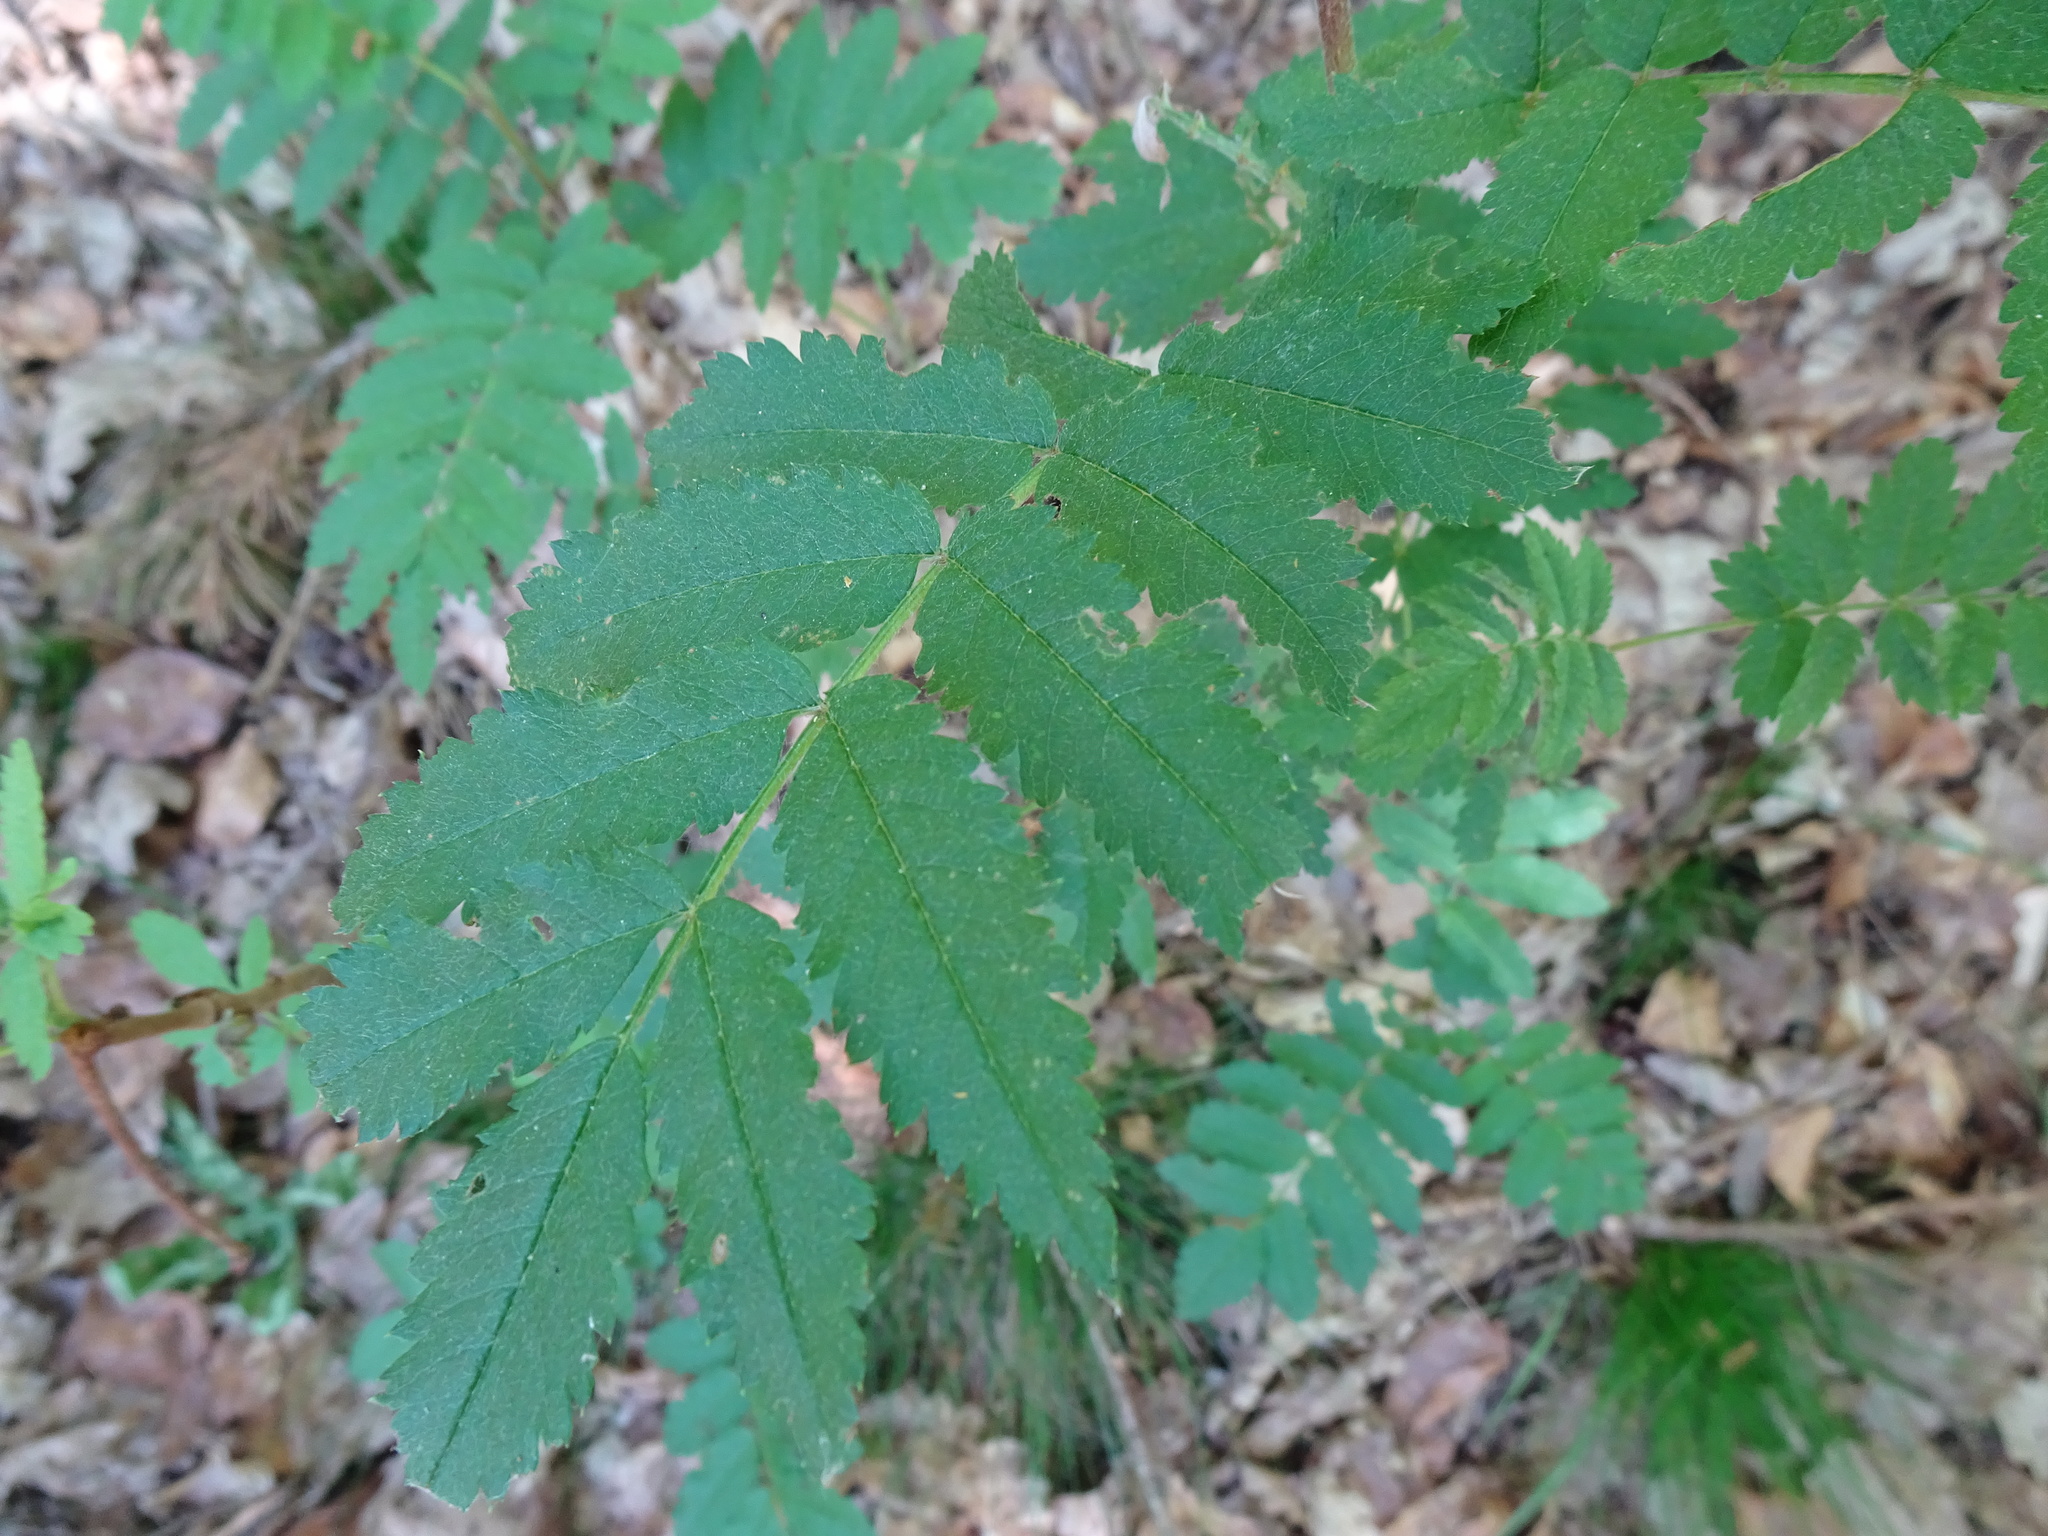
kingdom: Plantae
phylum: Tracheophyta
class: Magnoliopsida
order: Rosales
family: Rosaceae
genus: Sorbus
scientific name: Sorbus aucuparia
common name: Rowan
